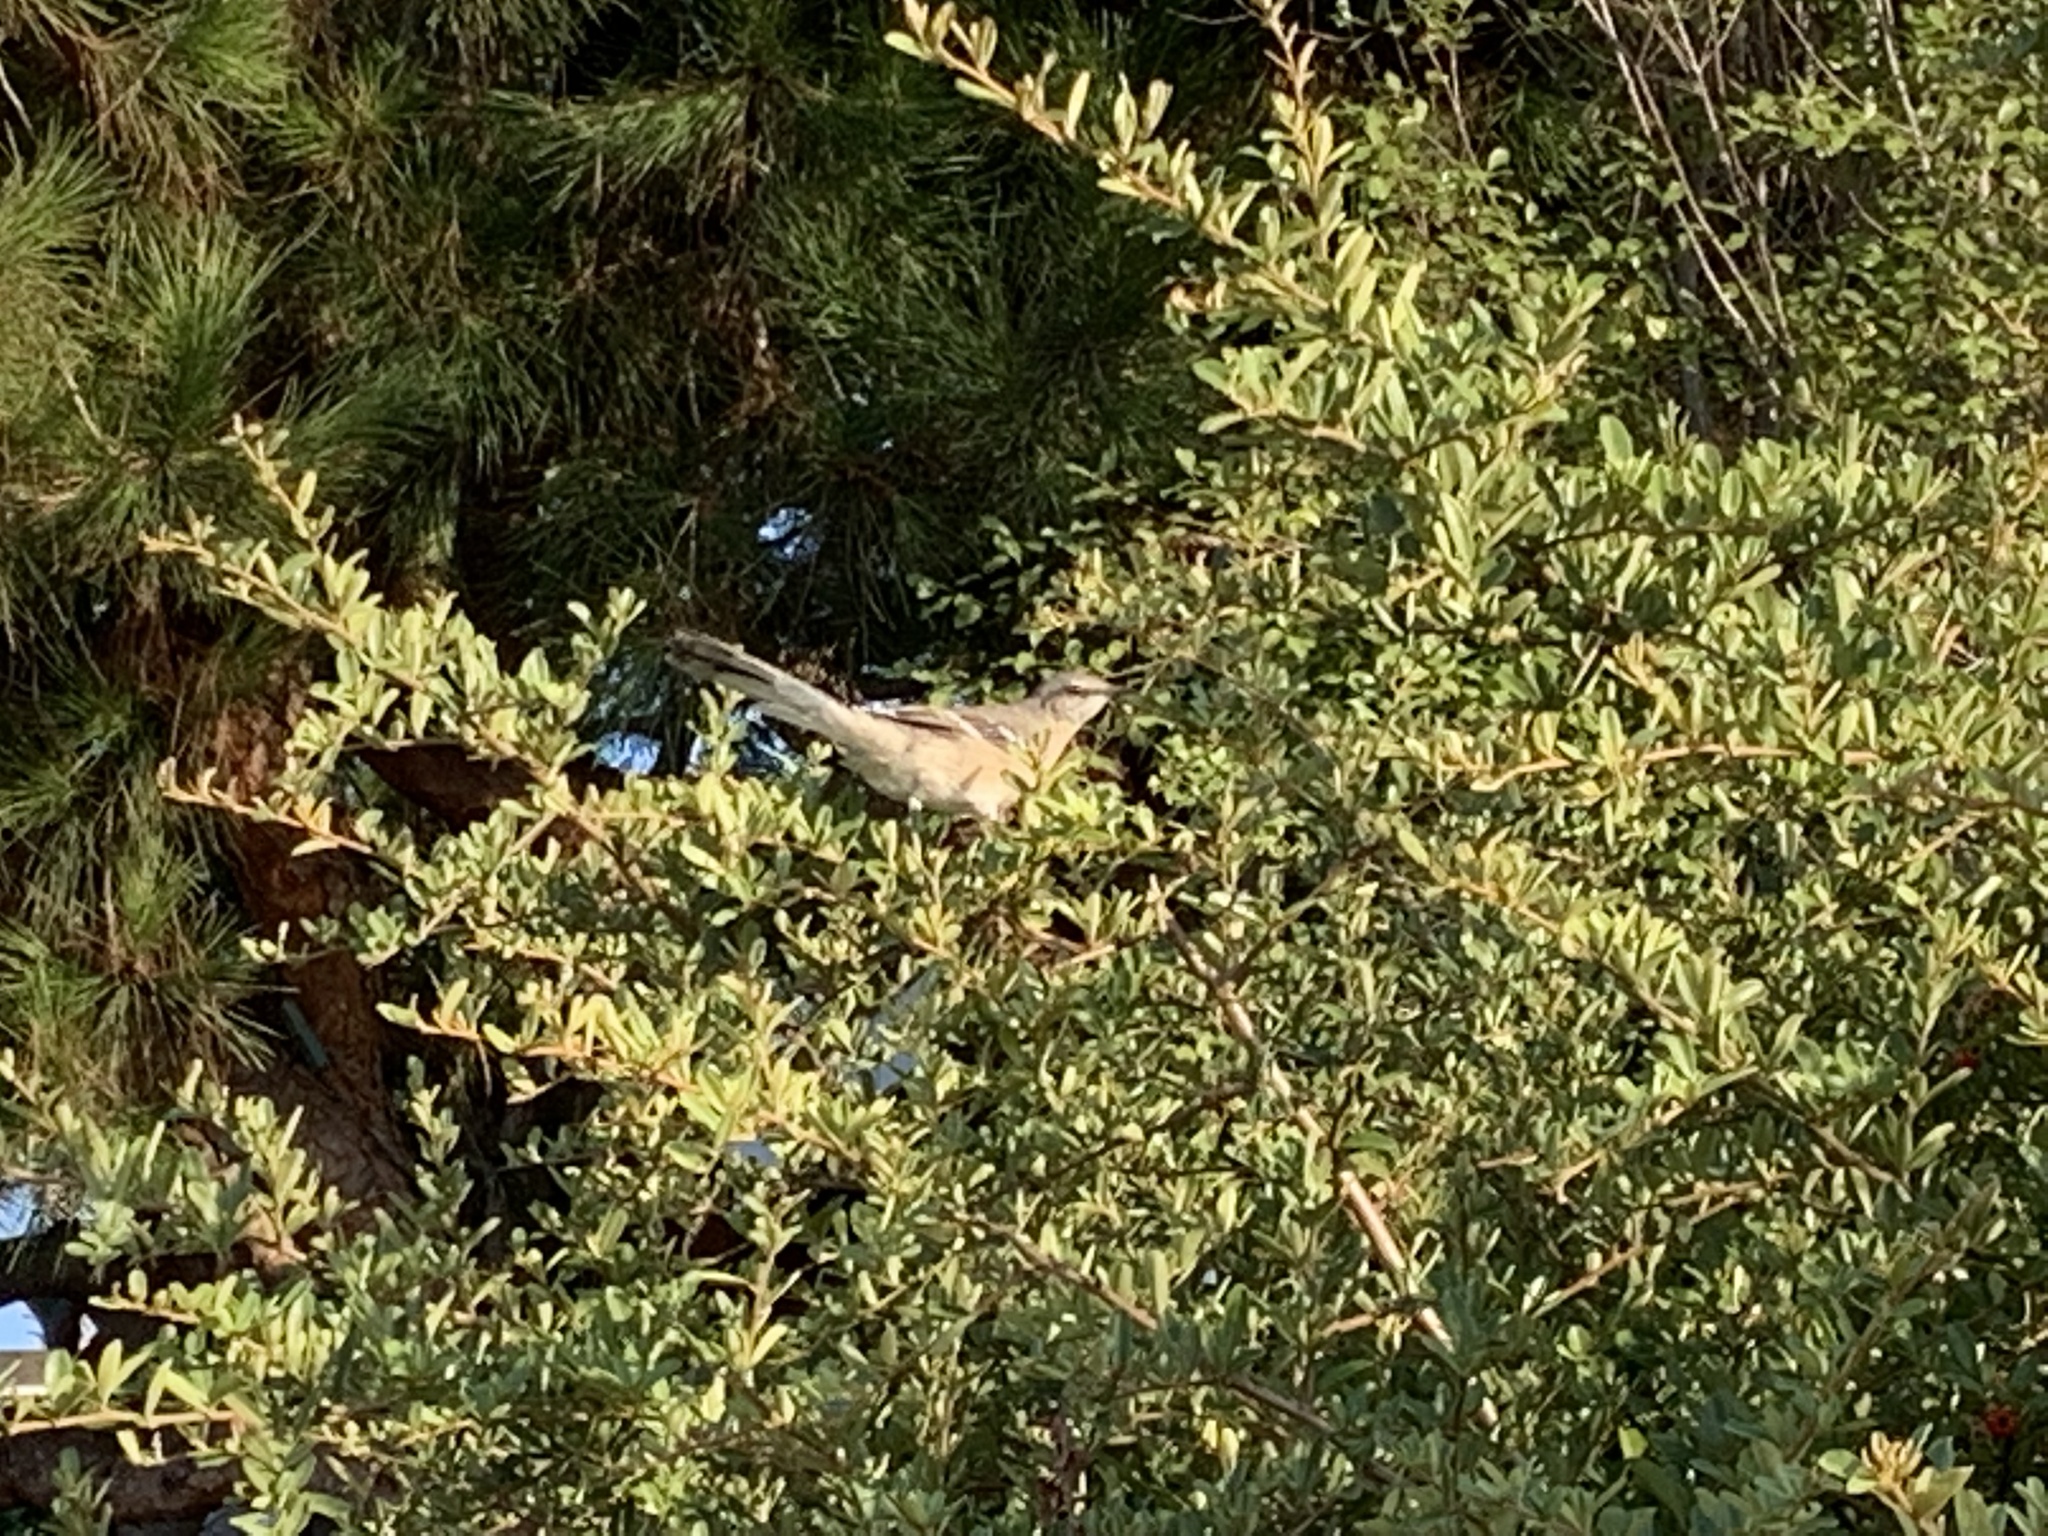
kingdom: Animalia
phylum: Chordata
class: Aves
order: Passeriformes
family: Mimidae
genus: Mimus
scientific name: Mimus polyglottos
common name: Northern mockingbird
